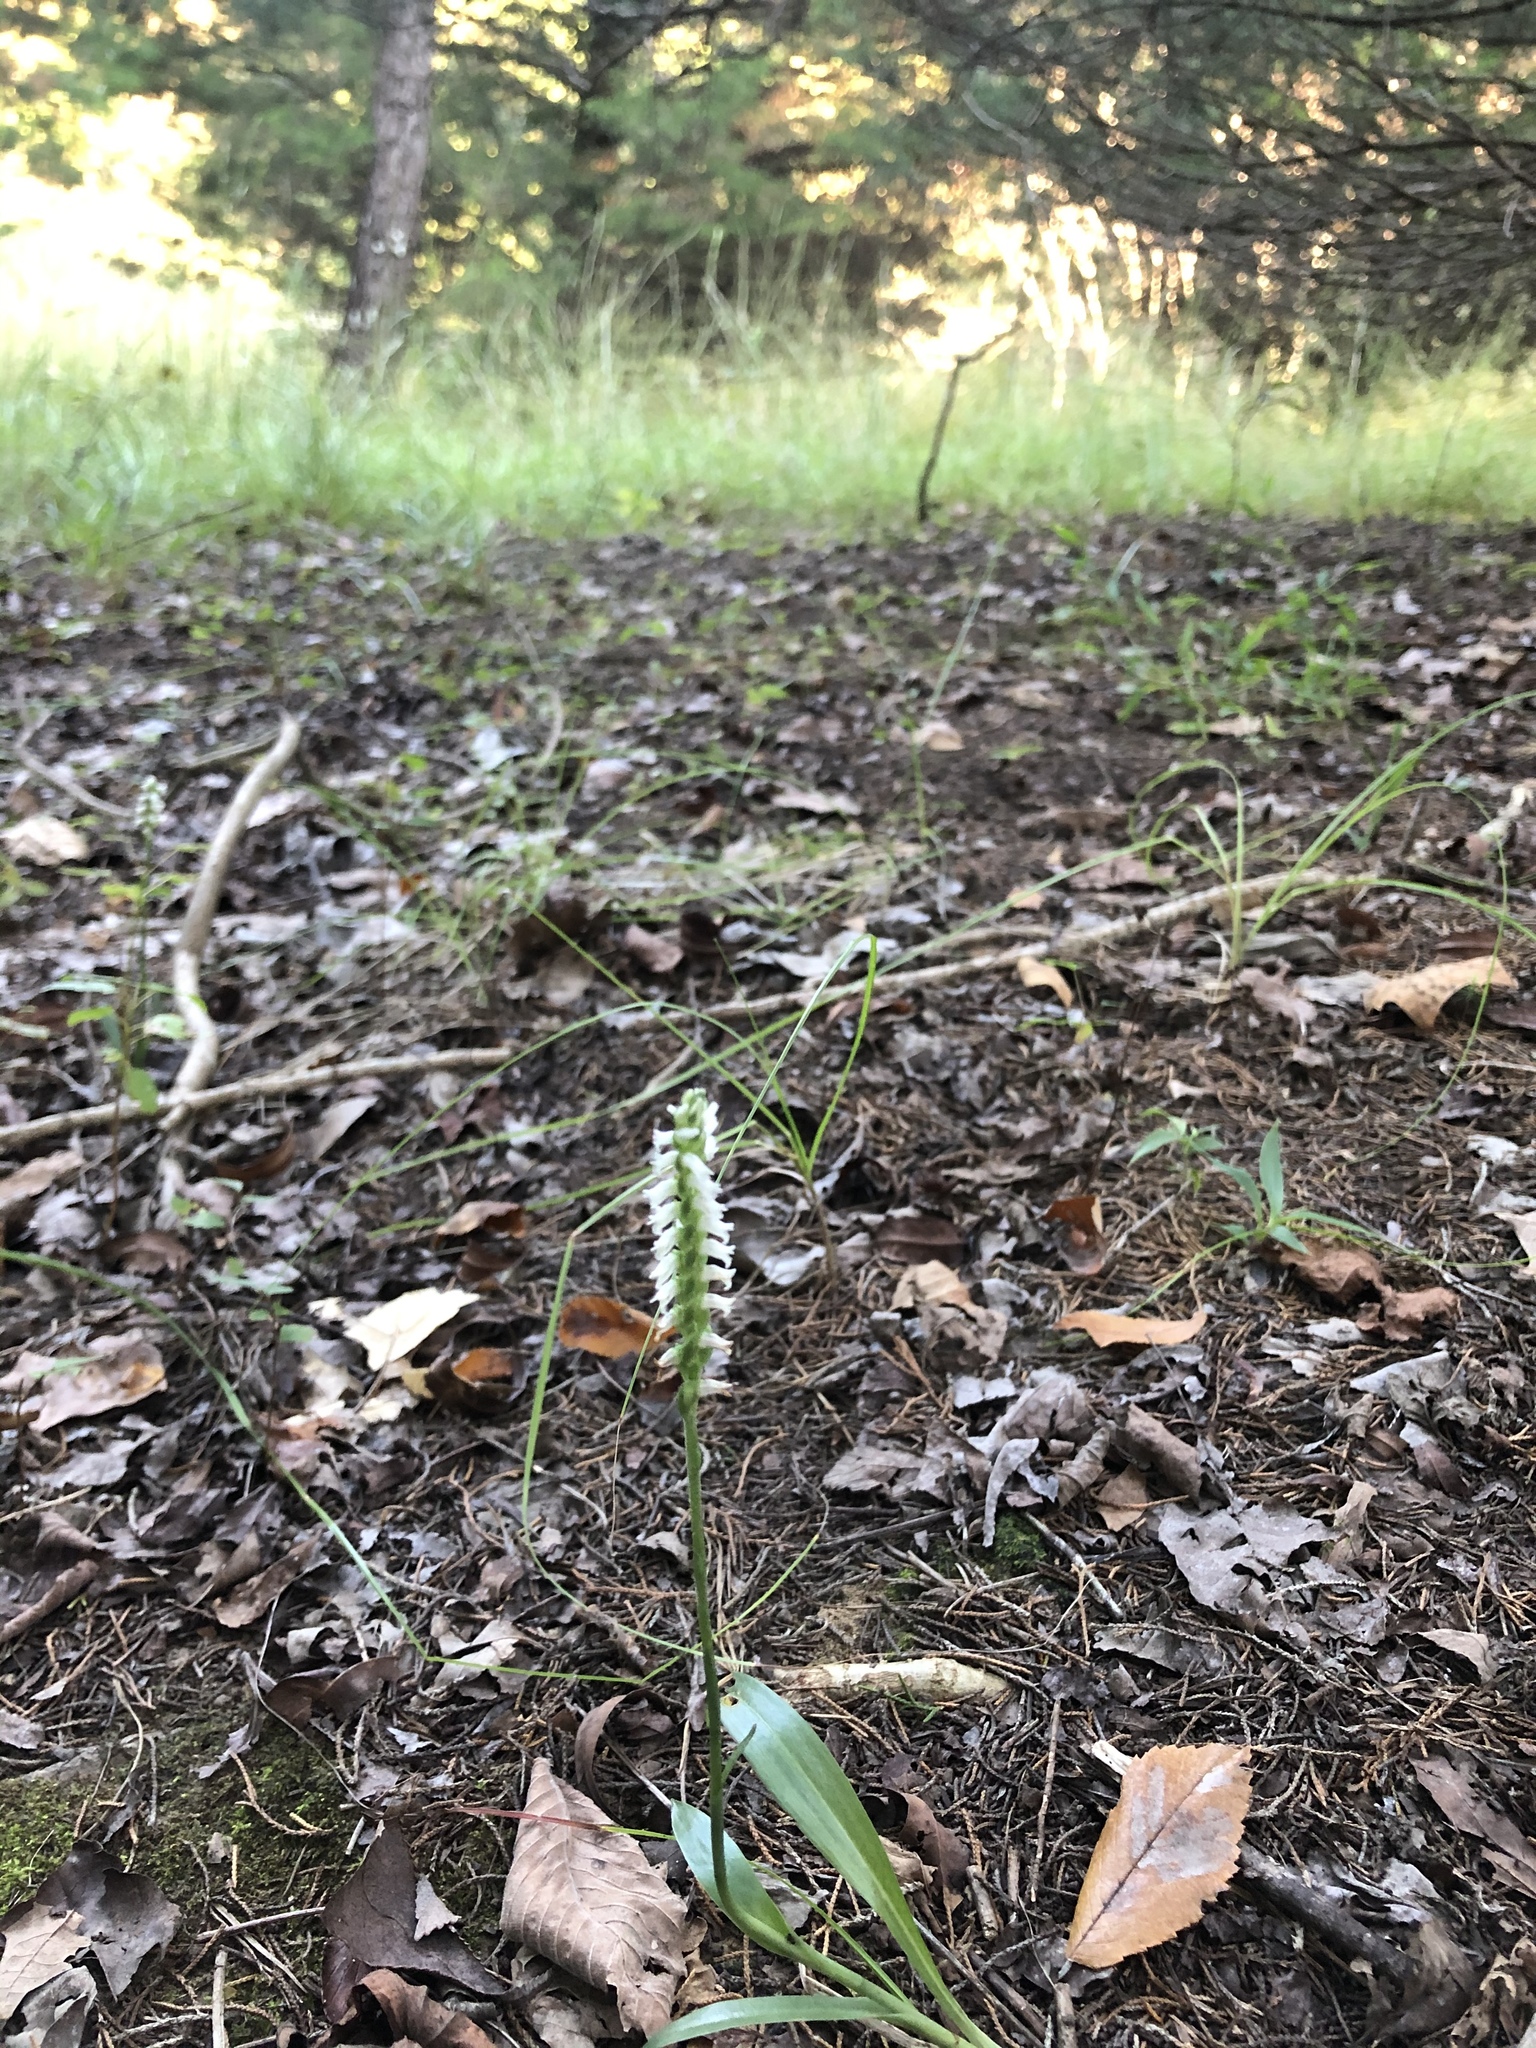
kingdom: Plantae
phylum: Tracheophyta
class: Liliopsida
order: Asparagales
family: Orchidaceae
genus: Spiranthes
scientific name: Spiranthes ovalis
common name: October ladies'-tresses
